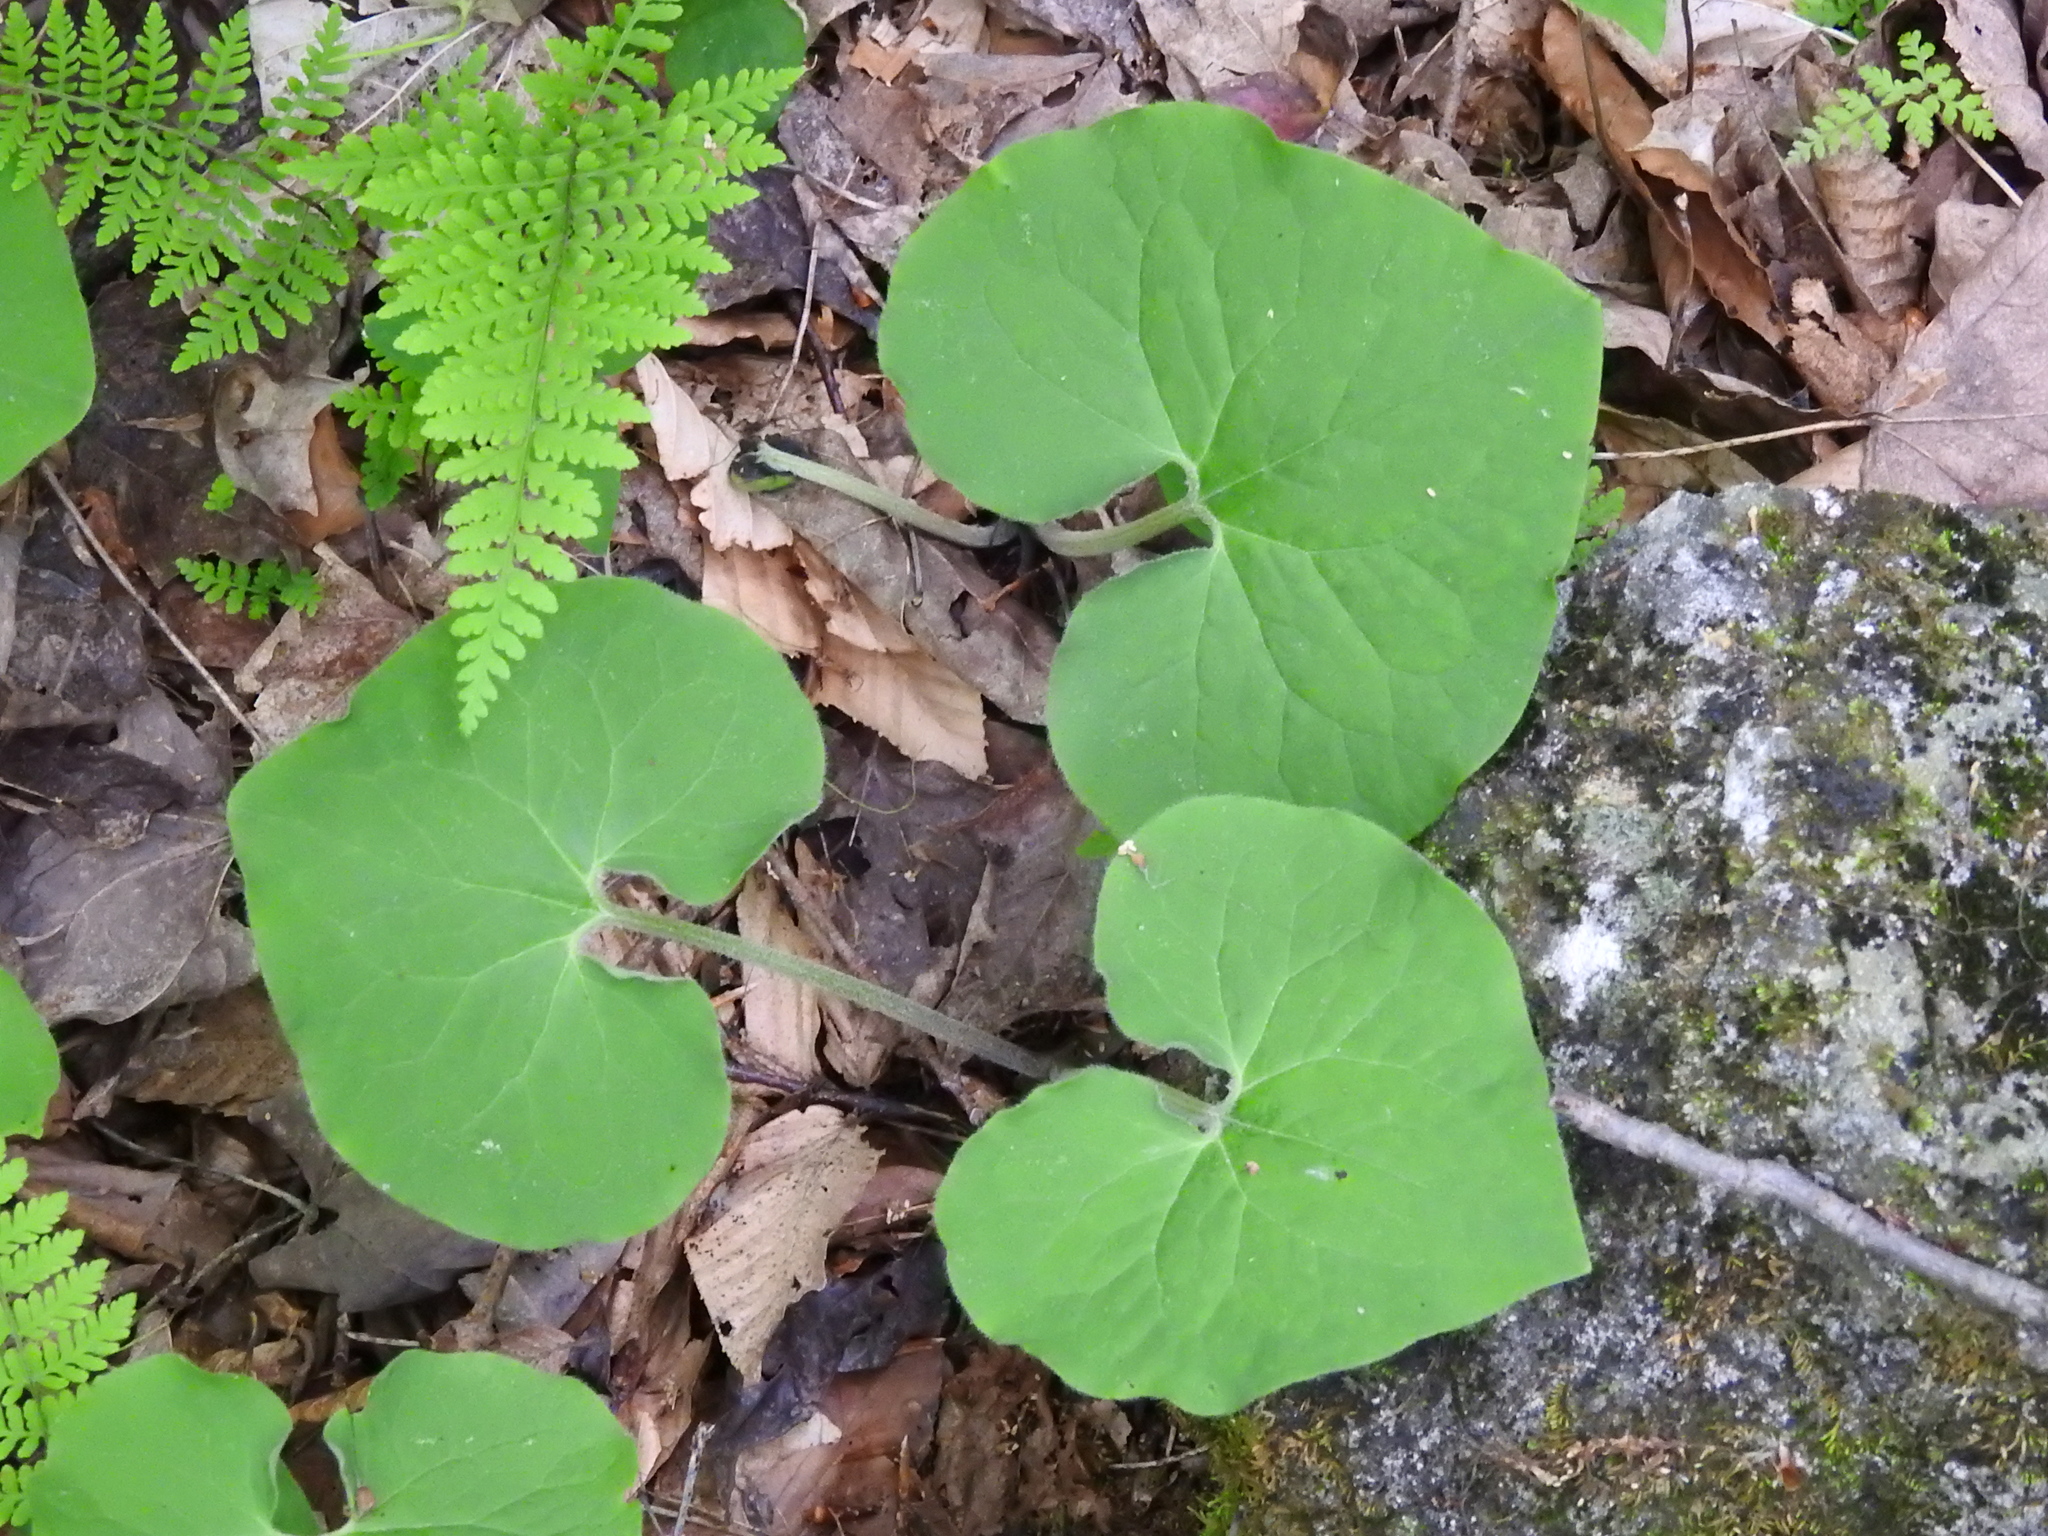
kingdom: Plantae
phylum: Tracheophyta
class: Magnoliopsida
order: Piperales
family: Aristolochiaceae
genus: Asarum
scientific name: Asarum canadense
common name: Wild ginger
